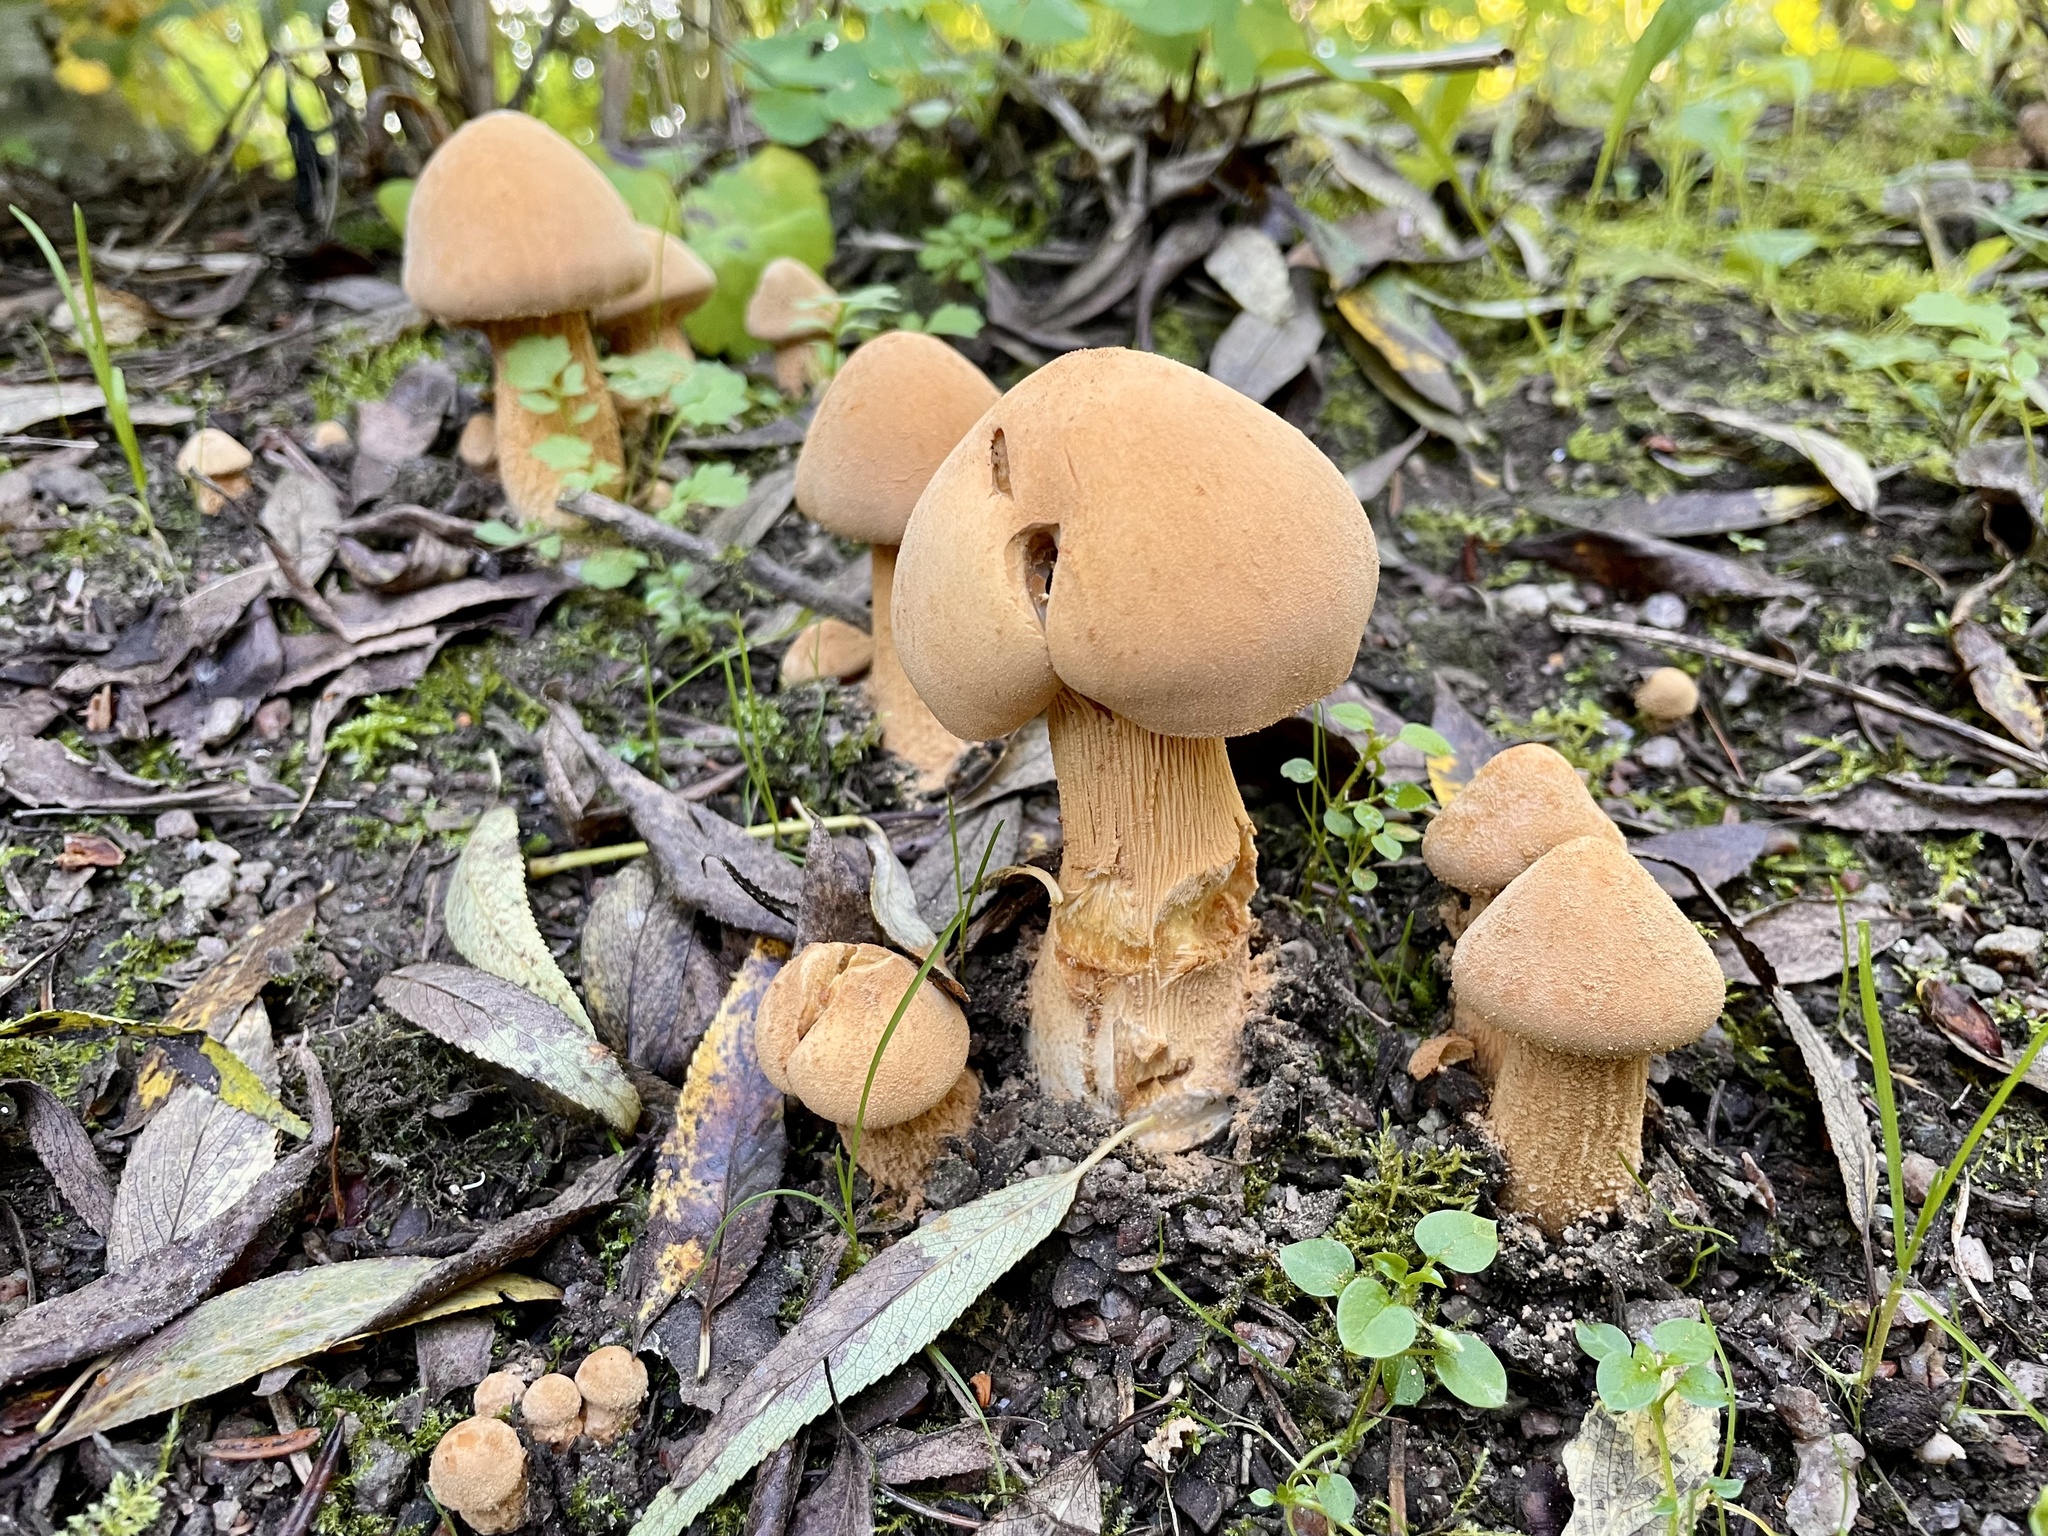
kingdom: Fungi
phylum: Basidiomycota
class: Agaricomycetes
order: Agaricales
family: Tricholomataceae
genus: Phaeolepiota
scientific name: Phaeolepiota aurea
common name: Golden bootleg
